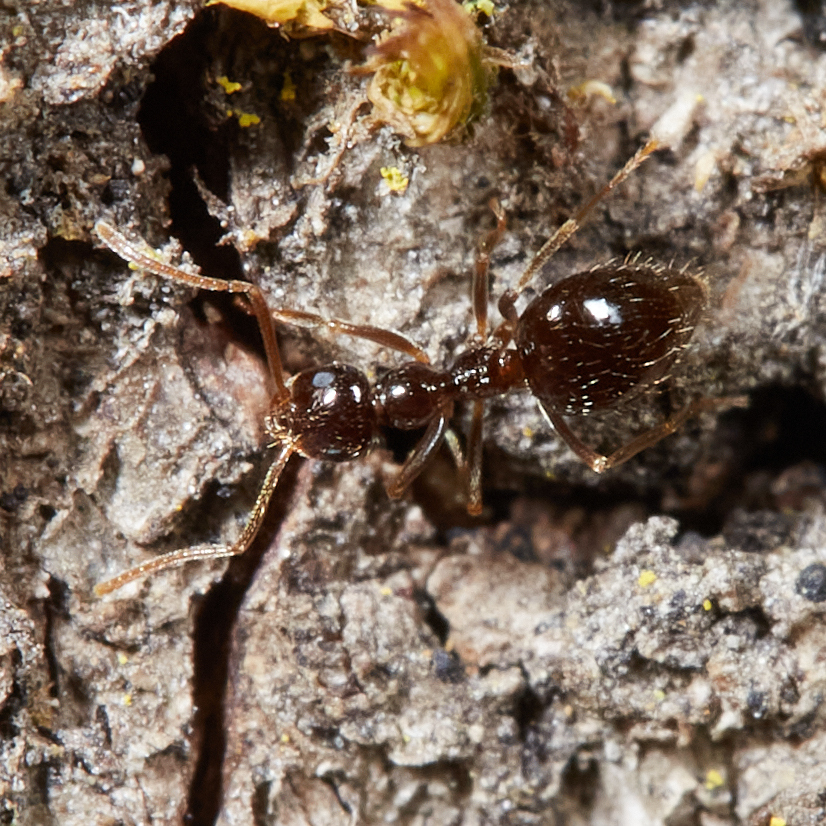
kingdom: Animalia
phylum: Arthropoda
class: Insecta
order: Hymenoptera
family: Formicidae
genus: Prenolepis
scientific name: Prenolepis imparis
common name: Small honey ant
